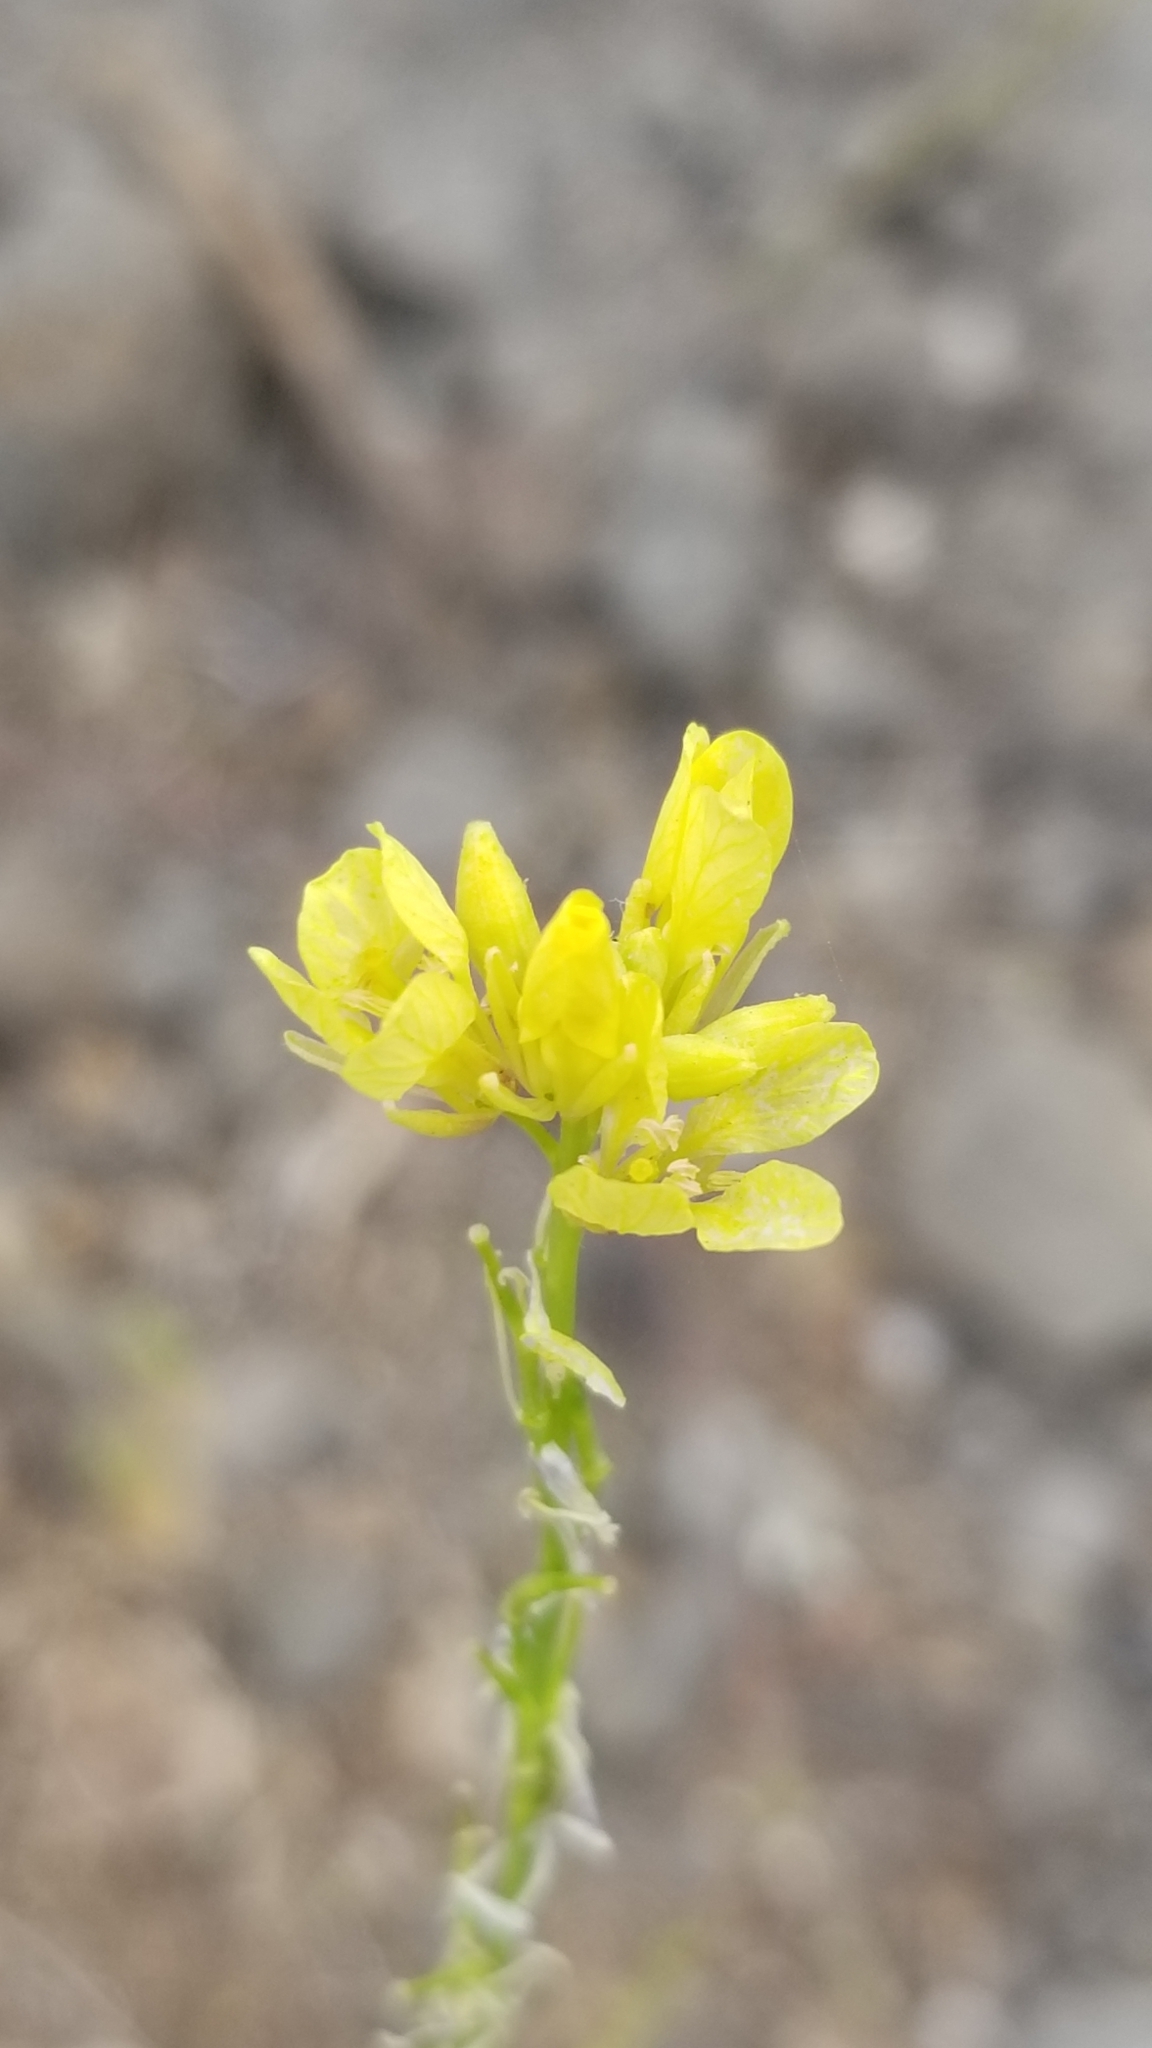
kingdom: Plantae
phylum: Tracheophyta
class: Magnoliopsida
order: Brassicales
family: Brassicaceae
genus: Hirschfeldia
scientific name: Hirschfeldia incana
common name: Hoary mustard
